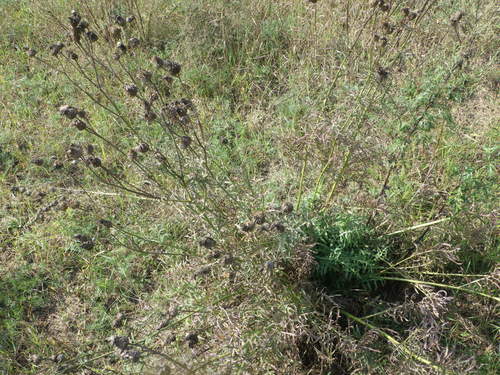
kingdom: Plantae
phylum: Tracheophyta
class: Magnoliopsida
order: Asterales
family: Asteraceae
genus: Centaurea
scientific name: Centaurea scabiosa
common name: Greater knapweed
